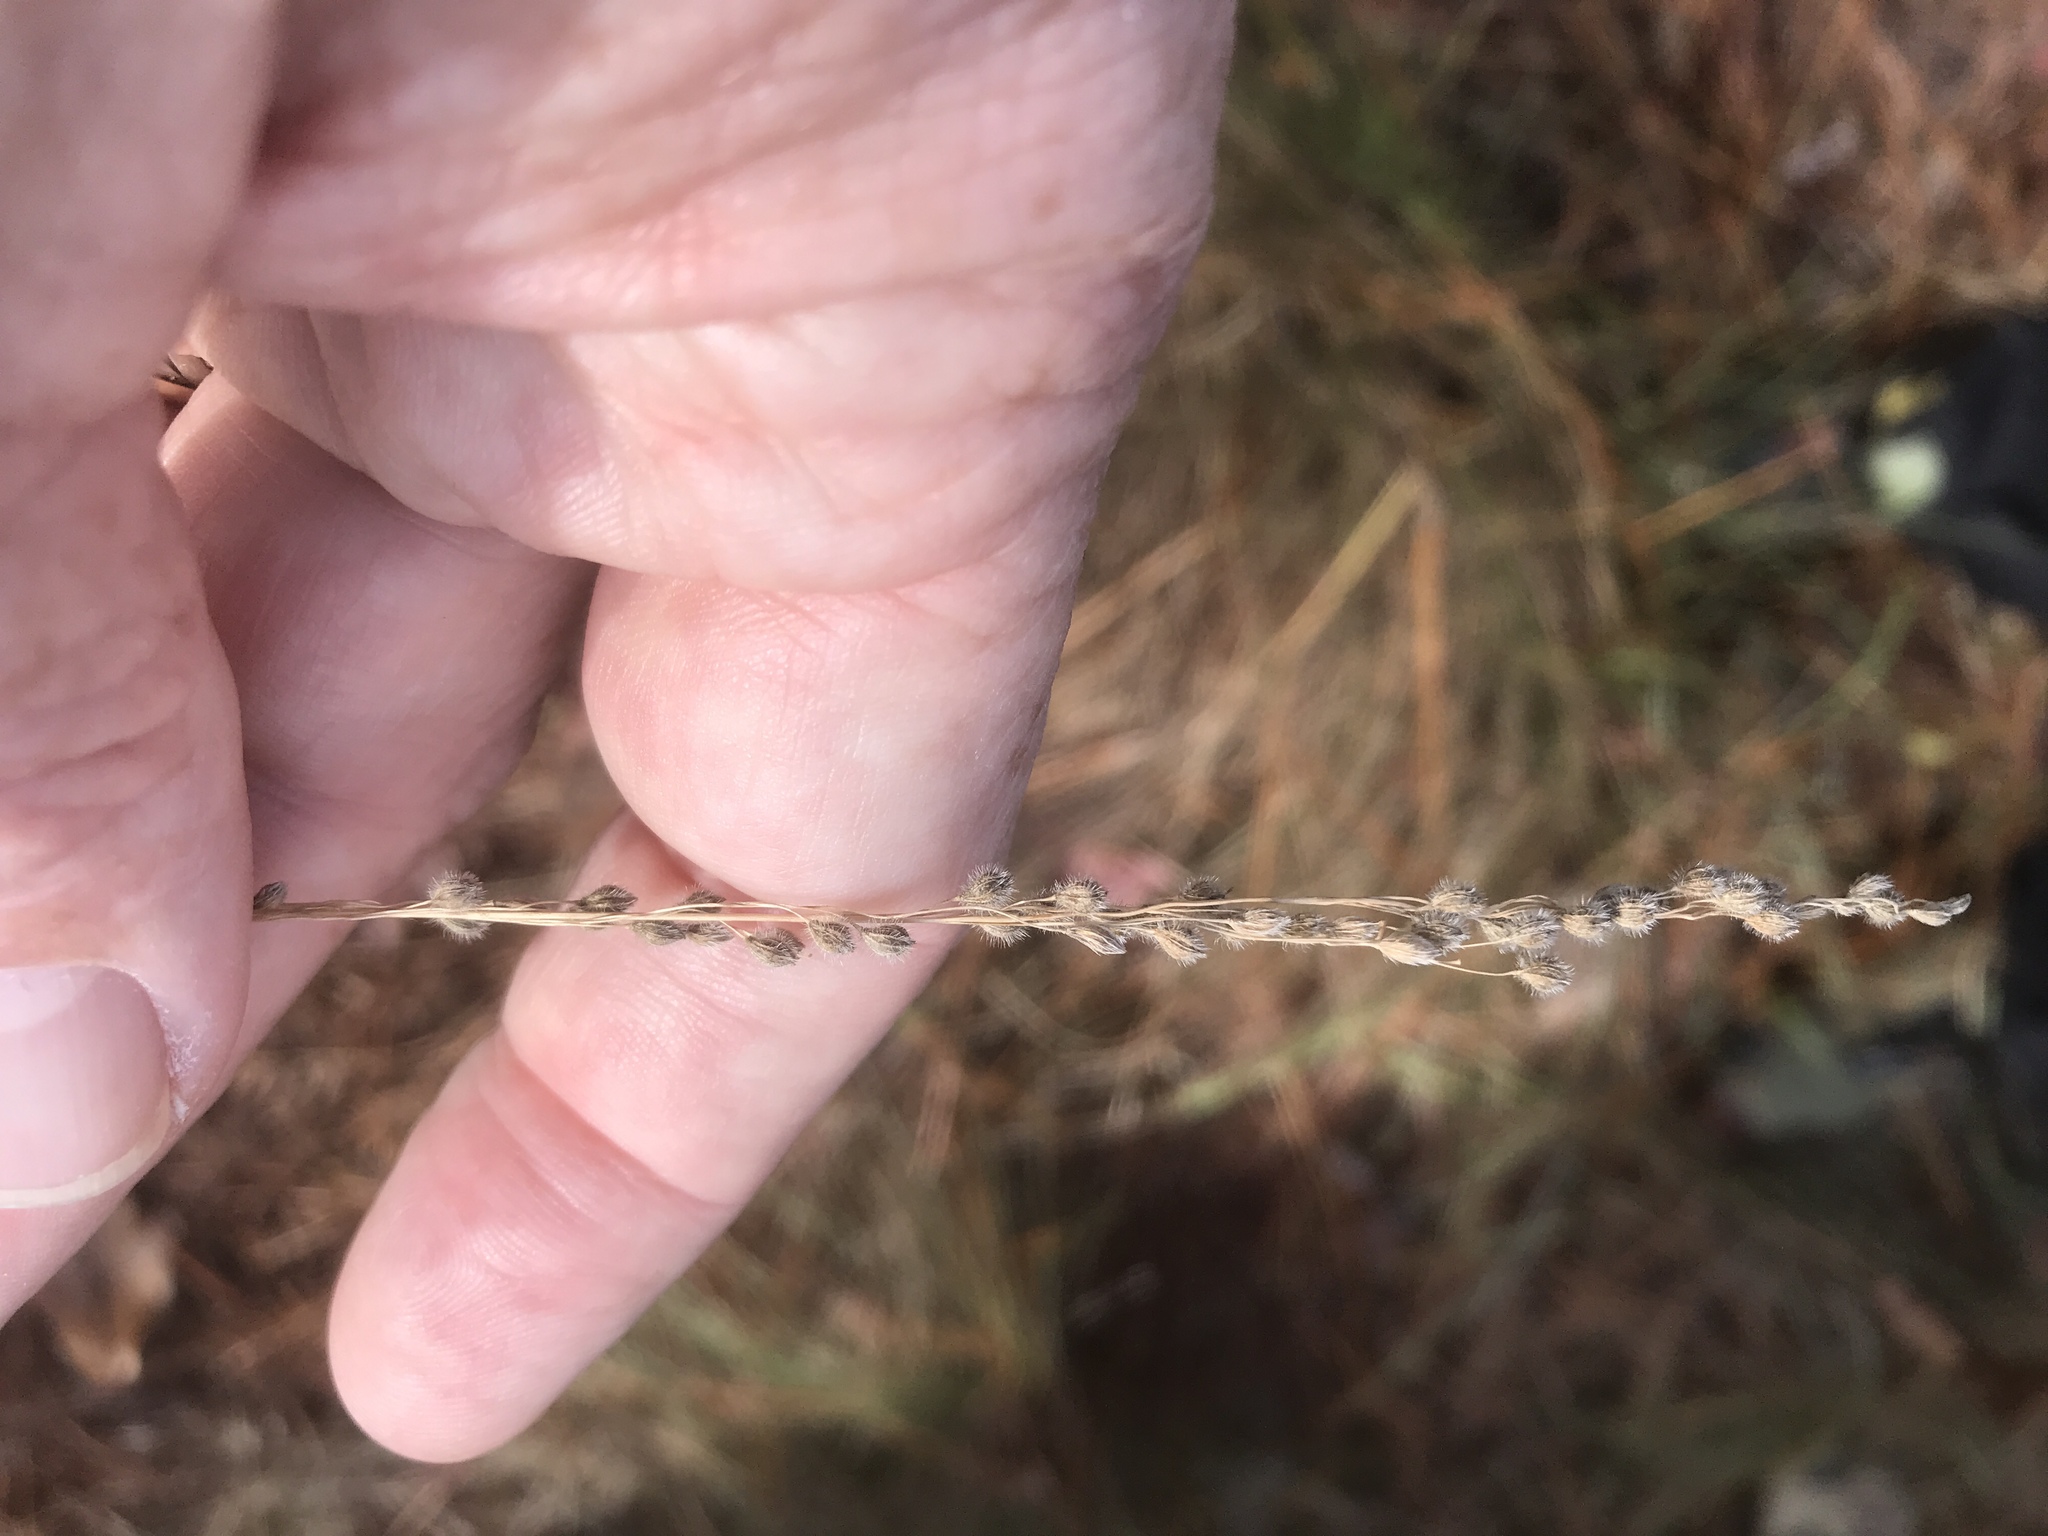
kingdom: Plantae
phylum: Tracheophyta
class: Liliopsida
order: Poales
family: Poaceae
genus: Anthenantia
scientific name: Anthenantia villosa
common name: Green silkyscale
